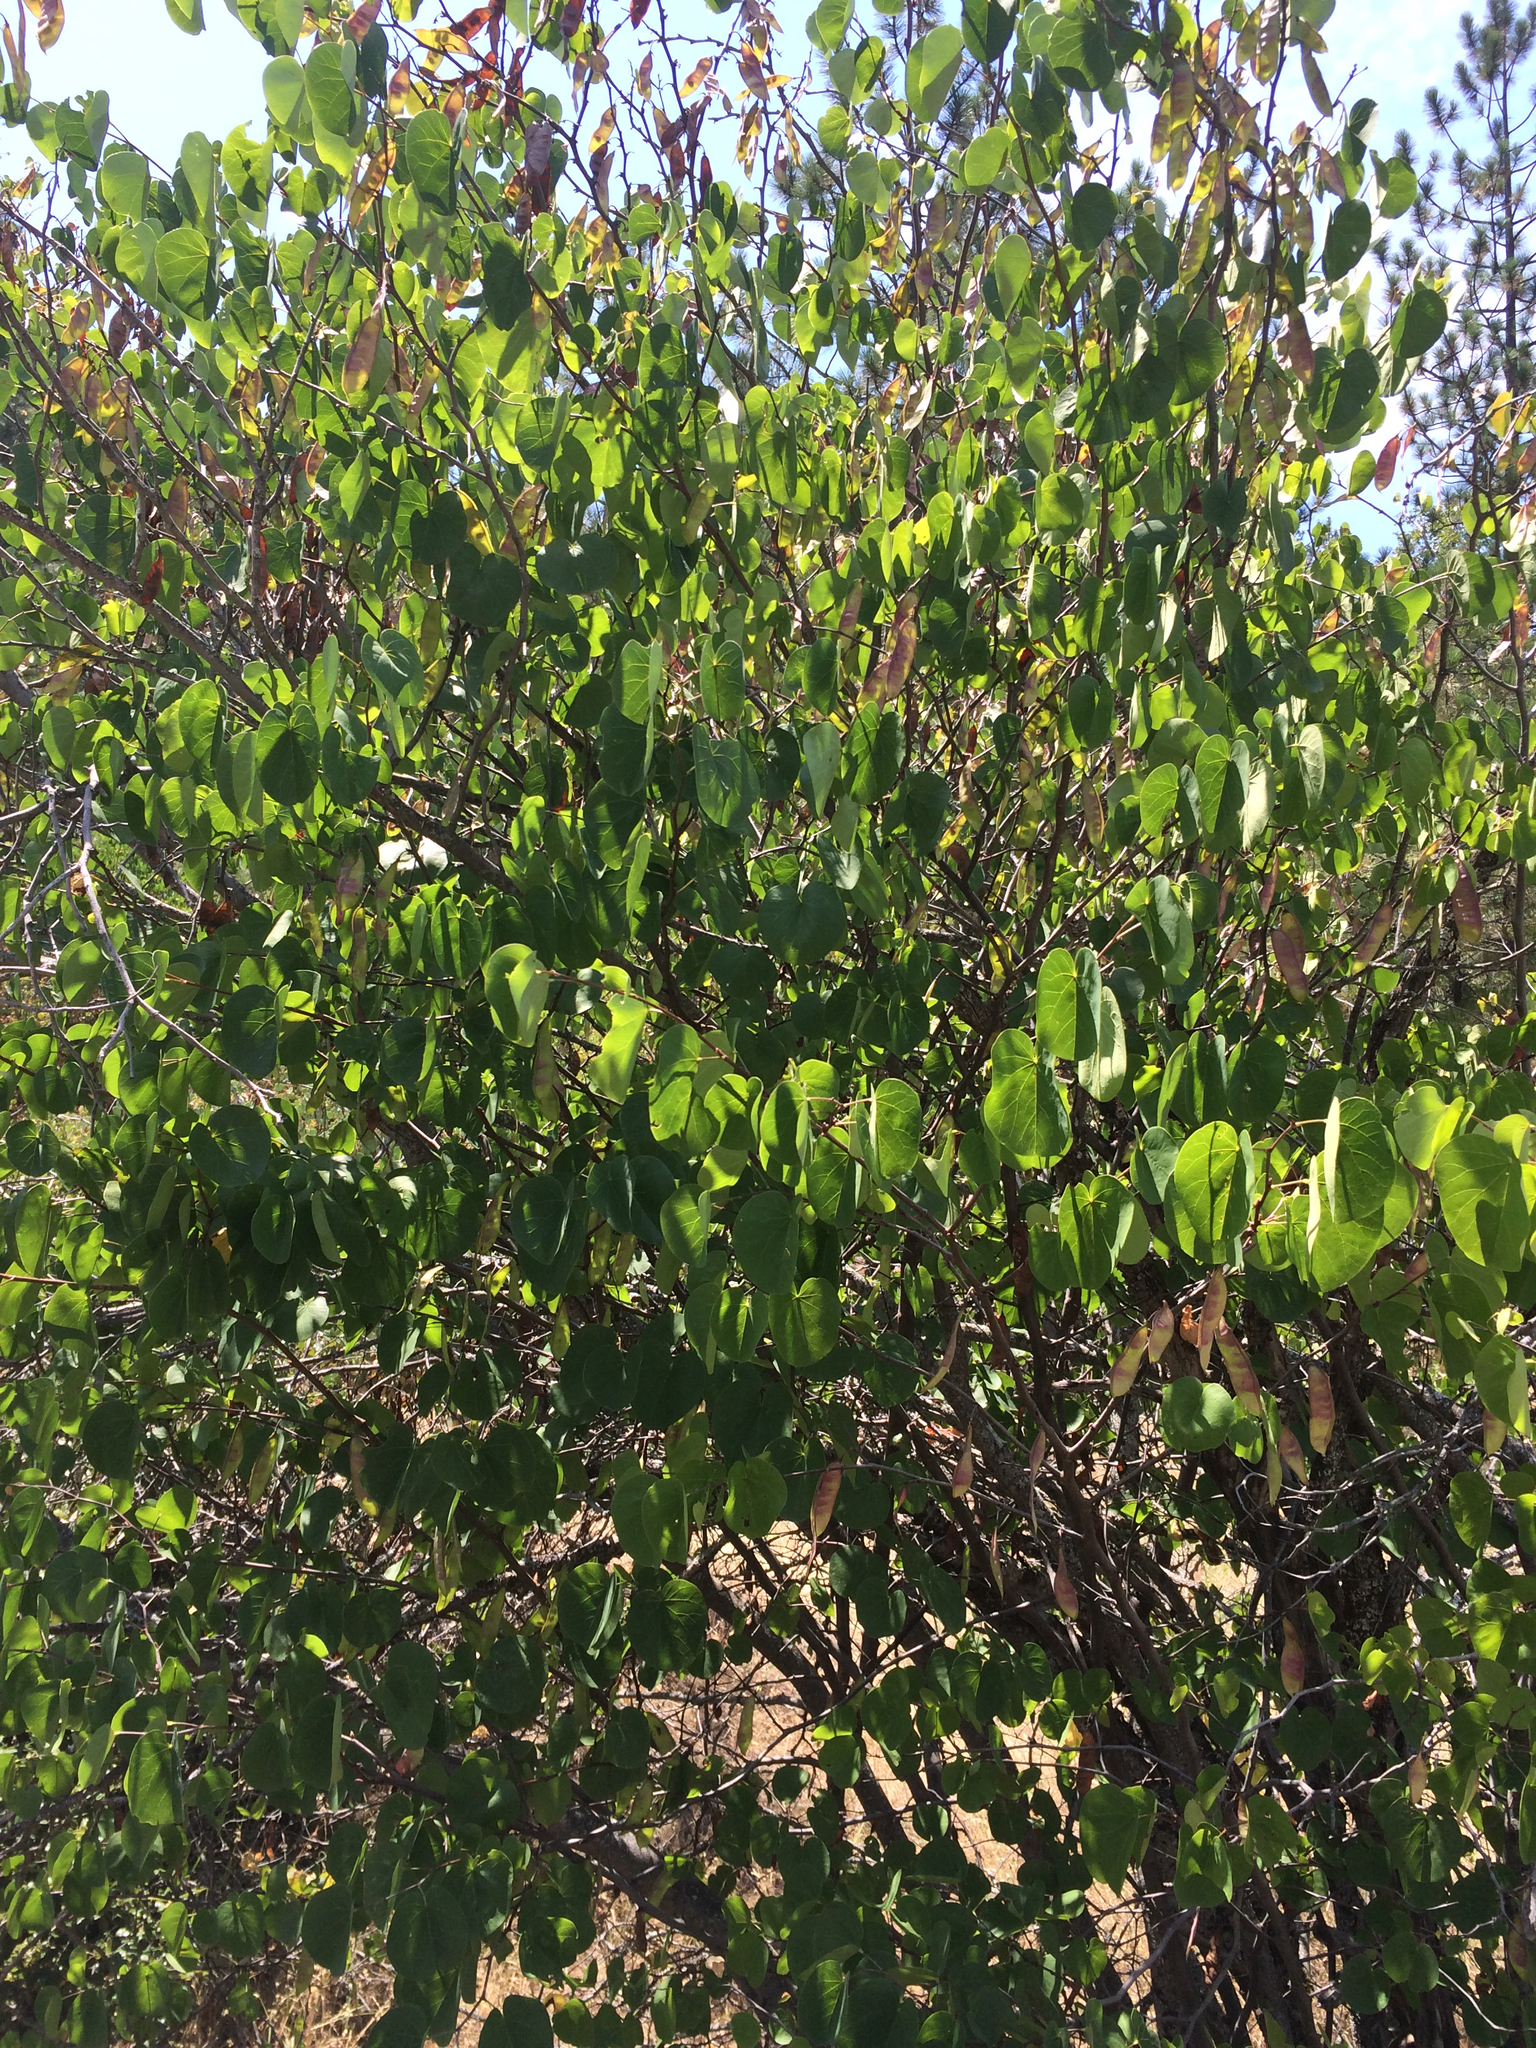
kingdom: Plantae
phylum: Tracheophyta
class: Magnoliopsida
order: Fabales
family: Fabaceae
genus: Cercis
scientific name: Cercis occidentalis
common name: California redbud
